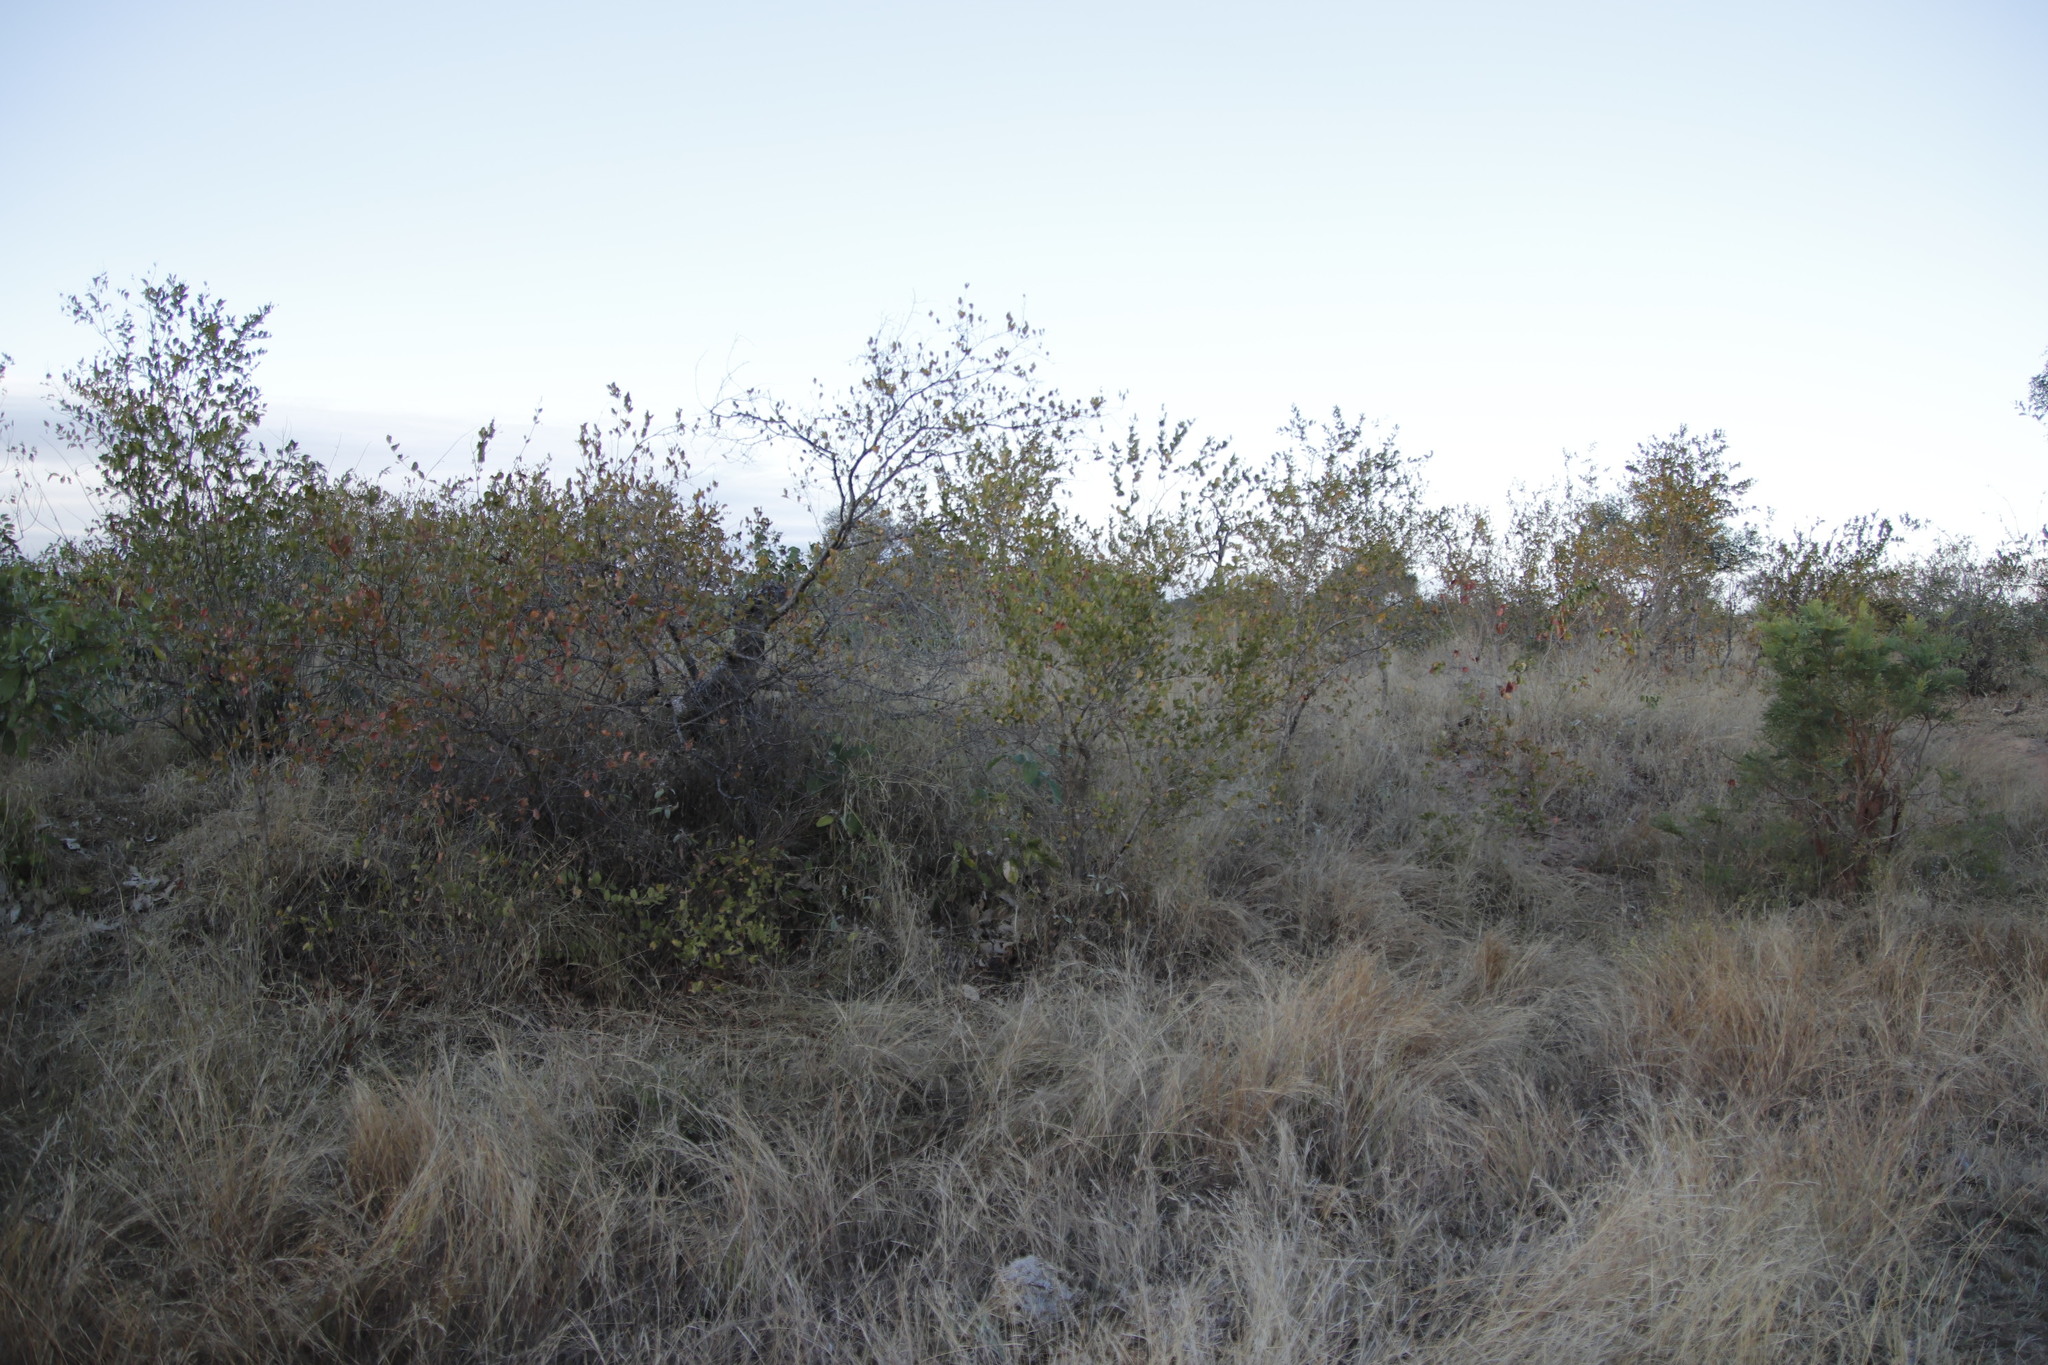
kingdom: Plantae
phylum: Tracheophyta
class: Magnoliopsida
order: Myrtales
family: Combretaceae
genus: Combretum
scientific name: Combretum apiculatum
